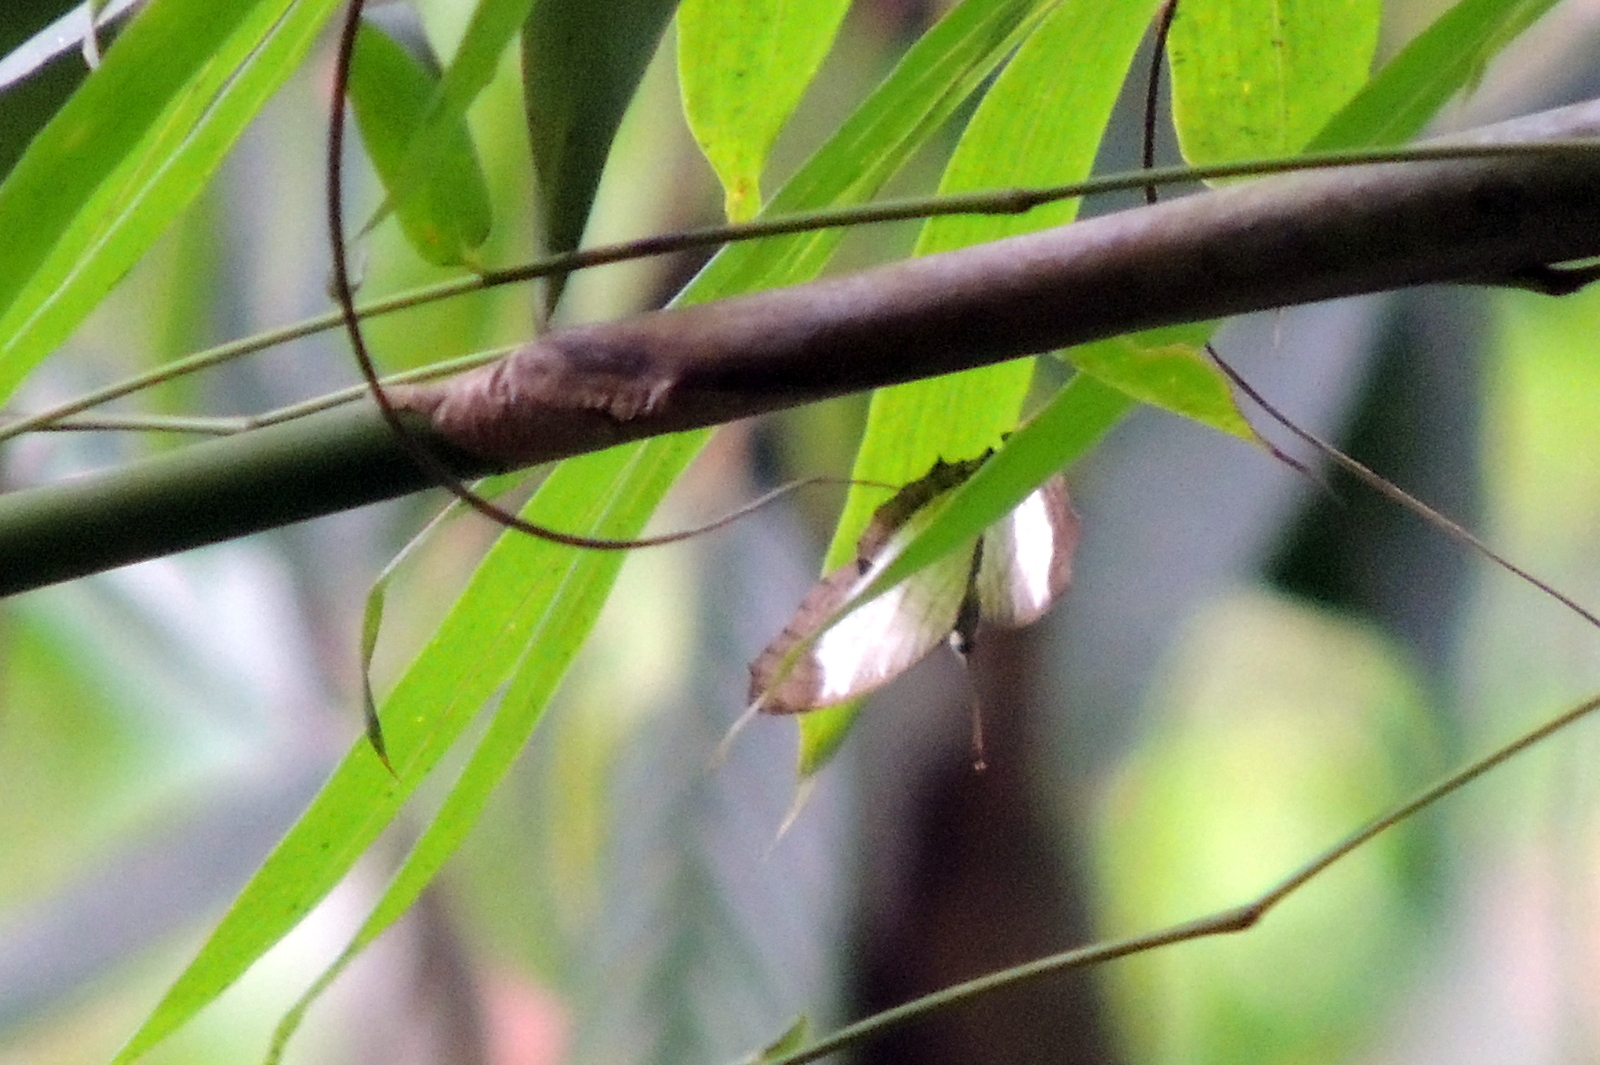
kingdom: Animalia
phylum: Arthropoda
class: Insecta
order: Lepidoptera
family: Nymphalidae
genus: Cyrestis
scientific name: Cyrestis themire
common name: Little mapwing
